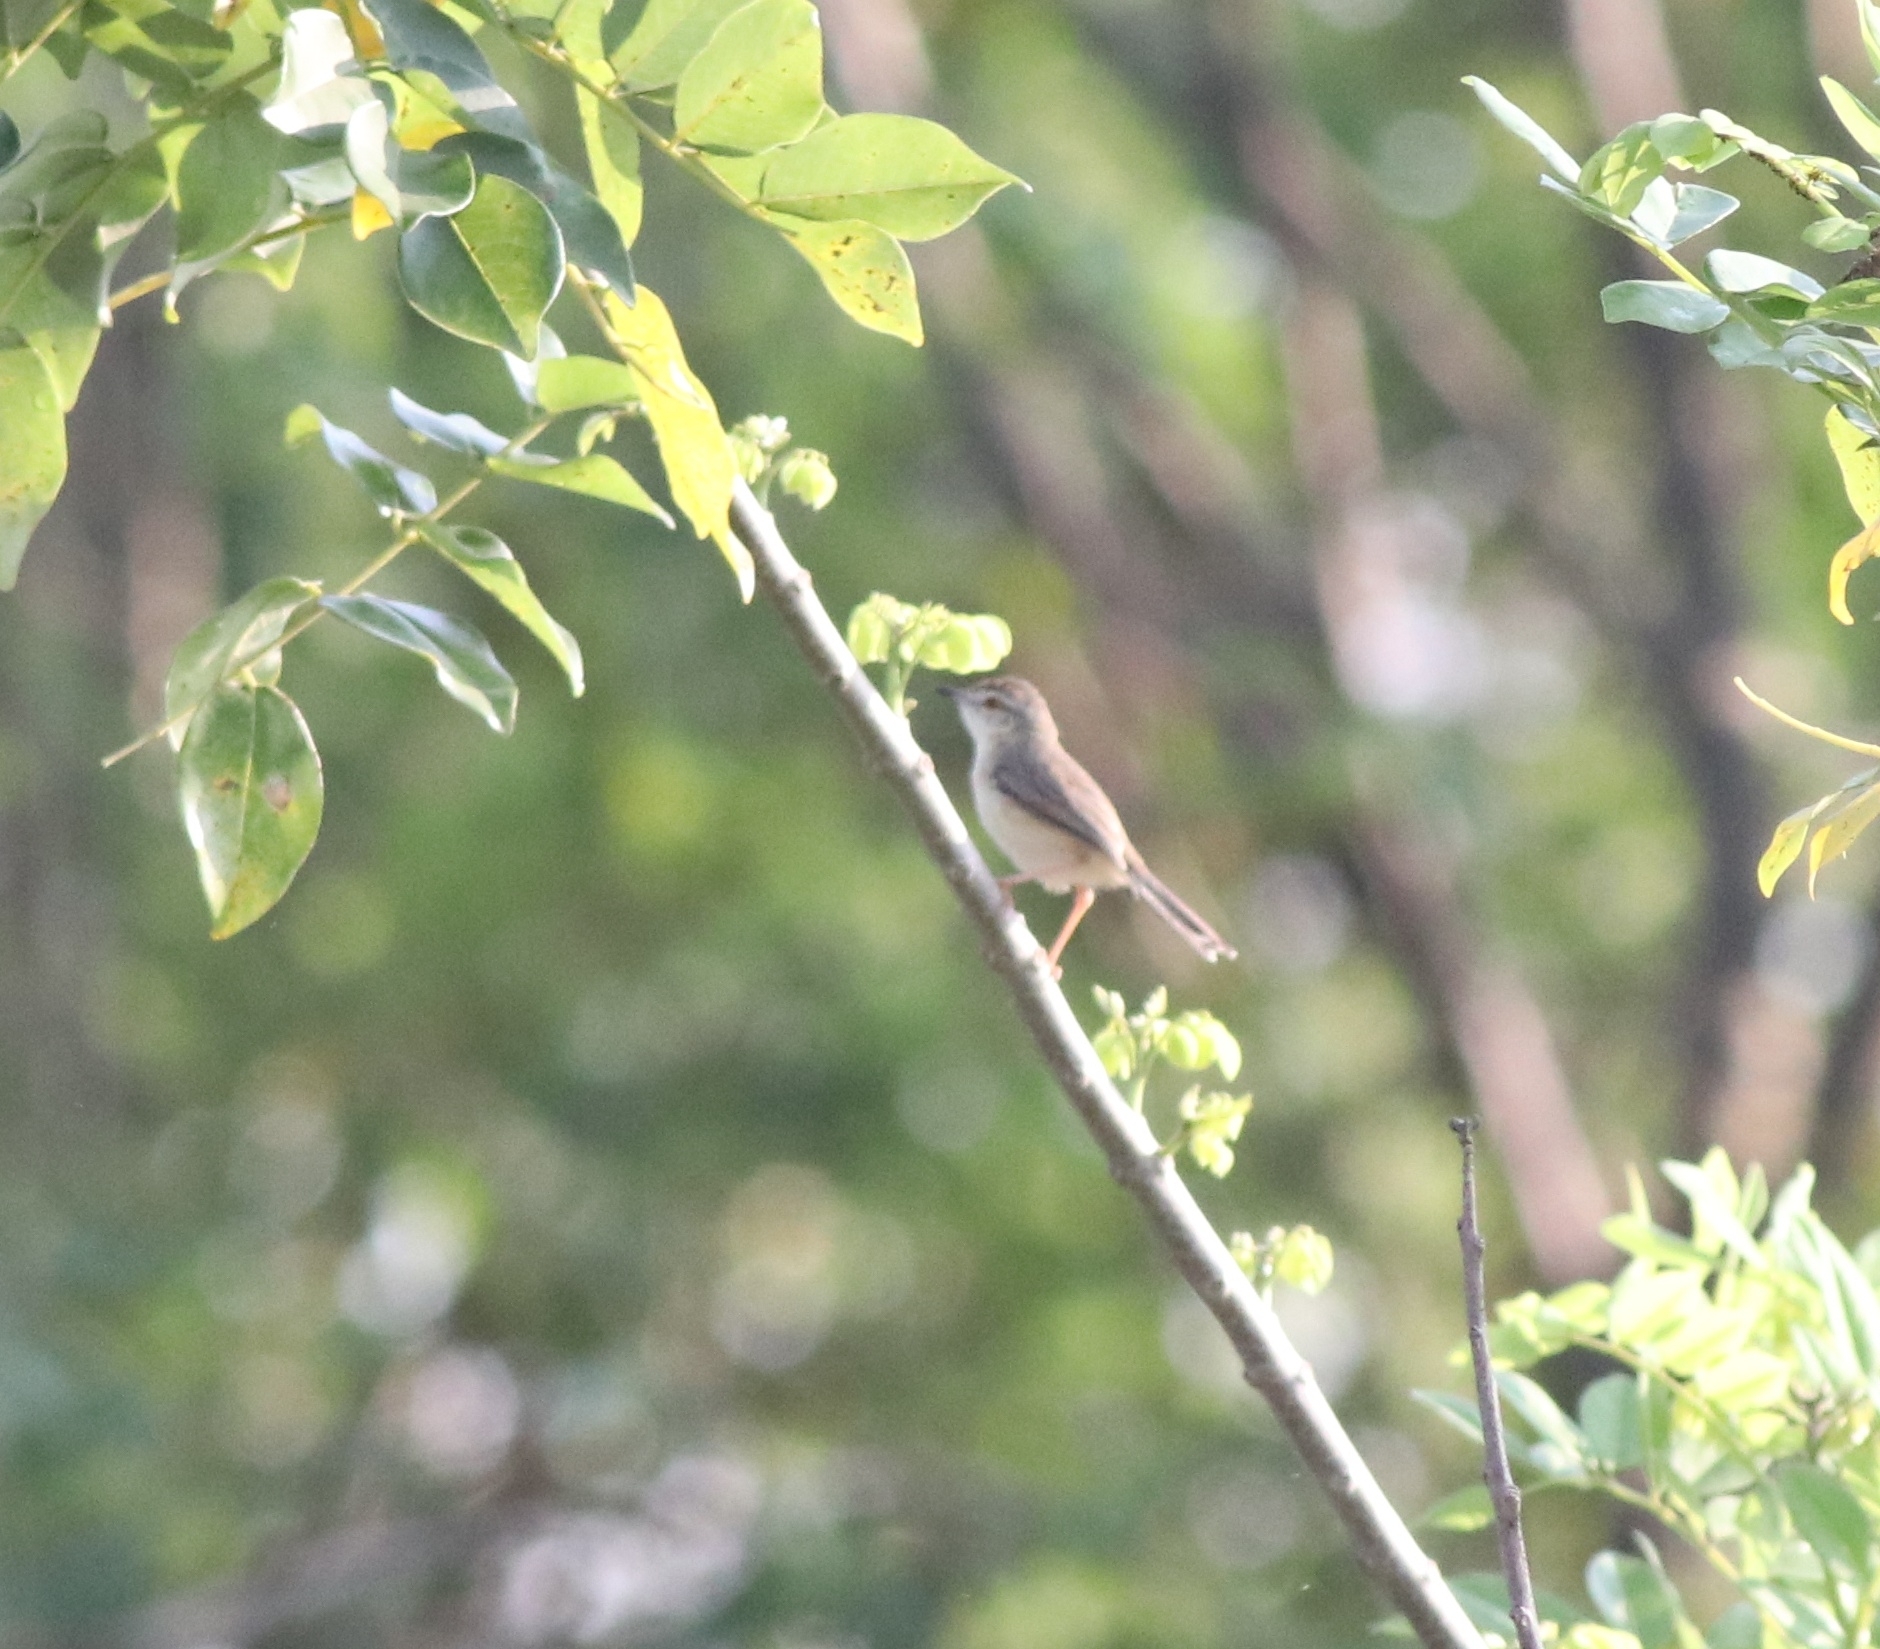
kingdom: Animalia
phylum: Chordata
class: Aves
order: Passeriformes
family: Cisticolidae
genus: Prinia
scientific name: Prinia inornata
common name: Plain prinia
